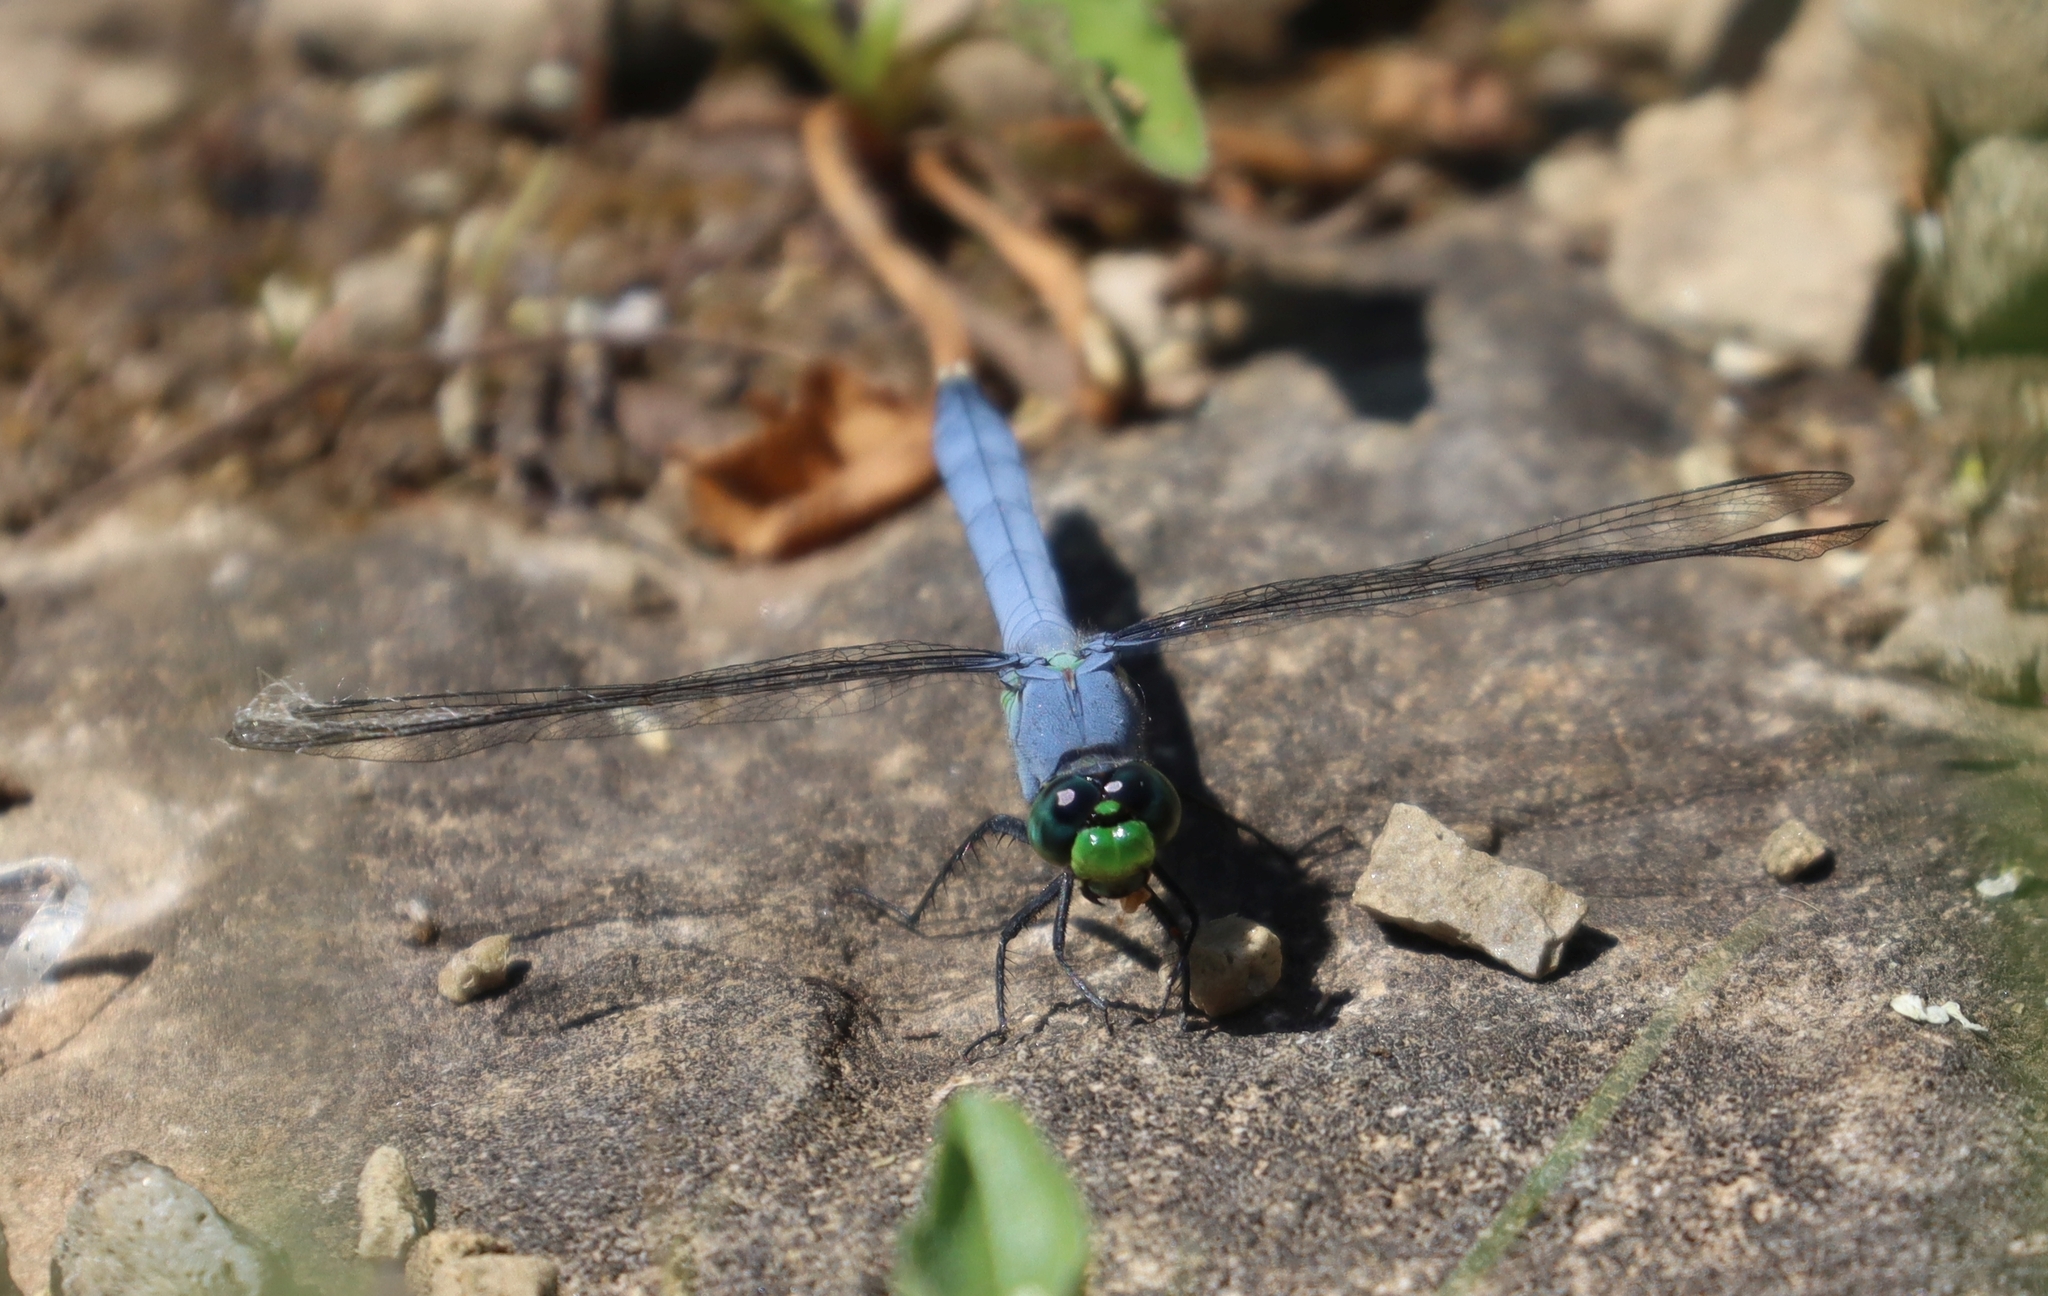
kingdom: Animalia
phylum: Arthropoda
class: Insecta
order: Odonata
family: Libellulidae
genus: Erythemis
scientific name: Erythemis simplicicollis
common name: Eastern pondhawk
